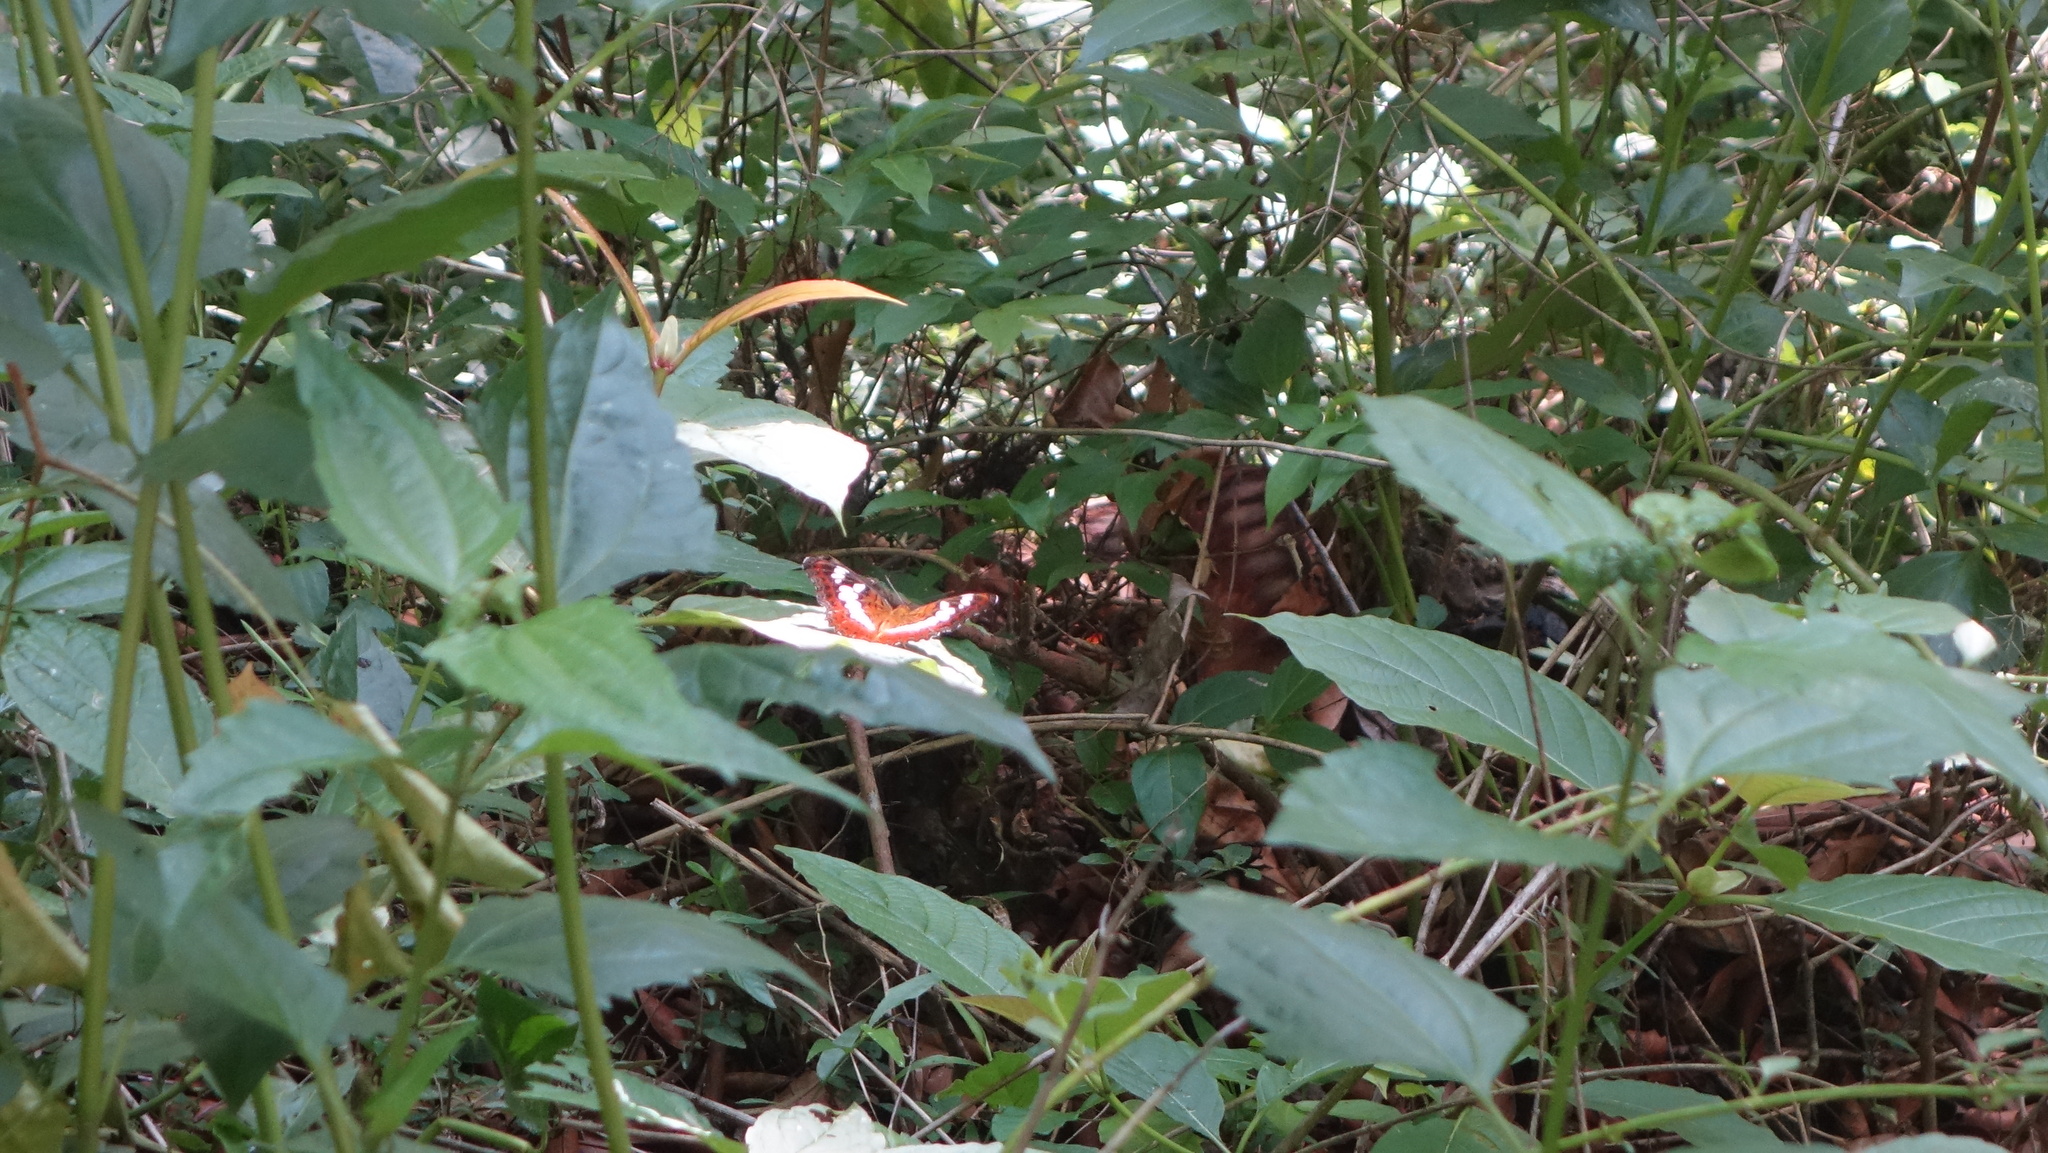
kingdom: Animalia
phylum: Arthropoda
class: Insecta
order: Lepidoptera
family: Nymphalidae
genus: Limenitis
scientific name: Limenitis Moduza procris
